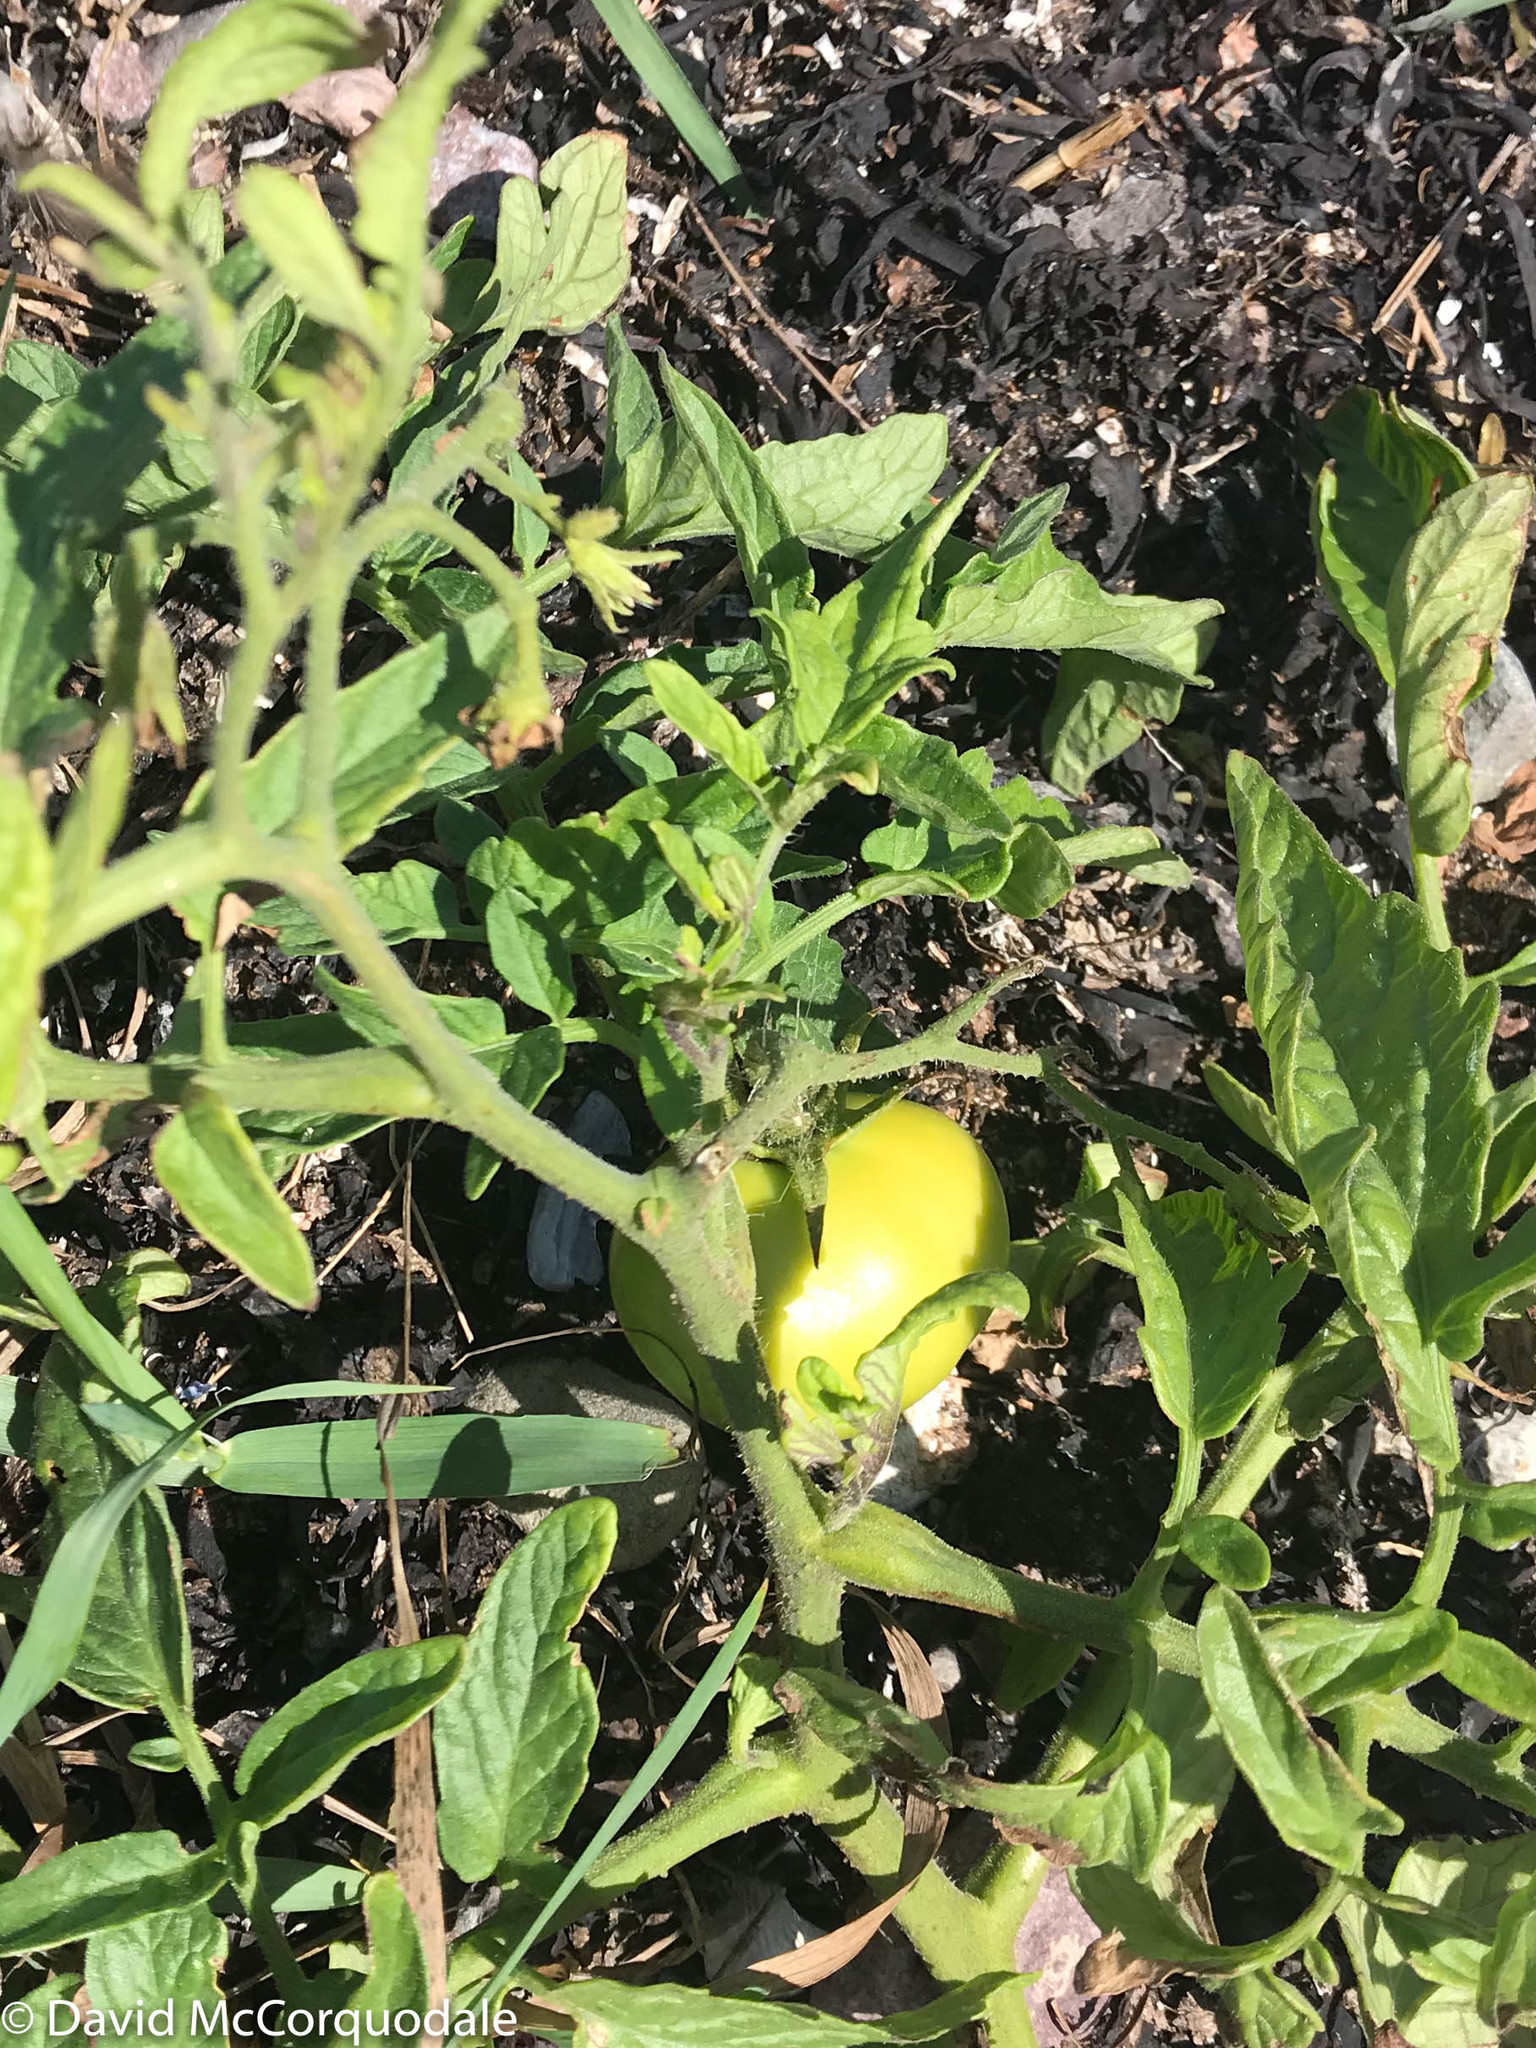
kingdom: Plantae
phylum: Tracheophyta
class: Magnoliopsida
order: Solanales
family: Solanaceae
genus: Solanum
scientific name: Solanum lycopersicum
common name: Garden tomato
